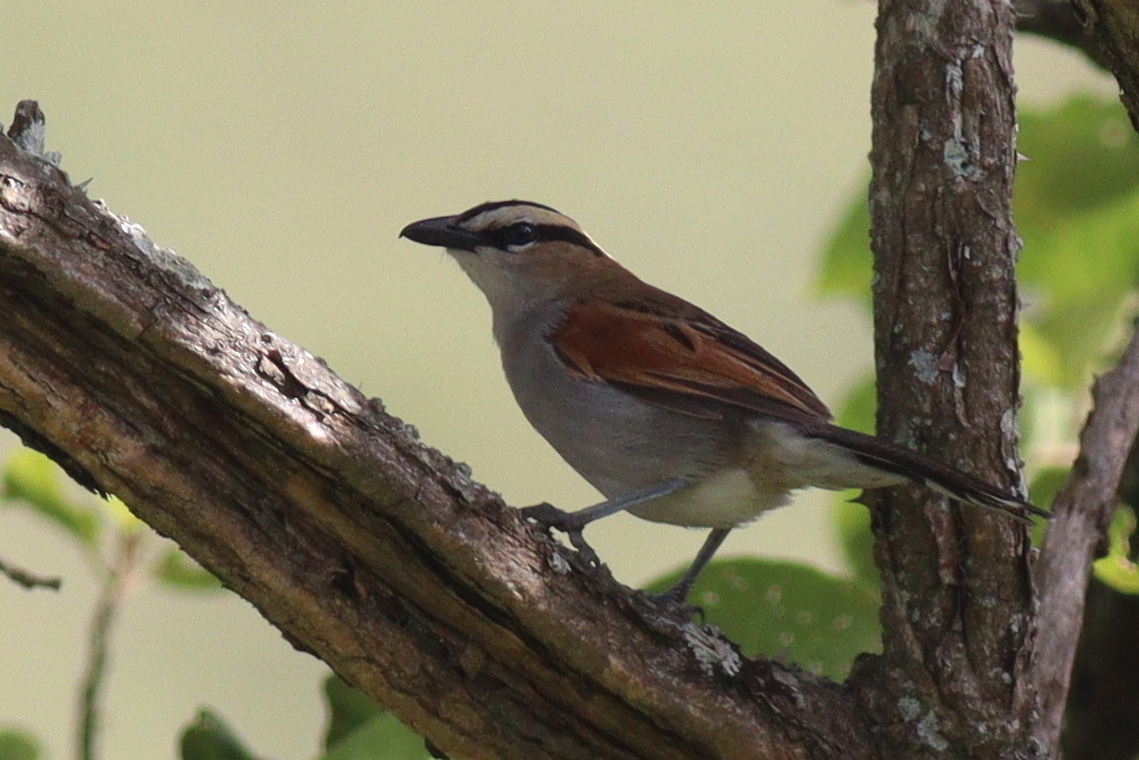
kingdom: Animalia
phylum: Chordata
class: Aves
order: Passeriformes
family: Malaconotidae
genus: Tchagra
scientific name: Tchagra senegalus
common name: Black-crowned tchagra
